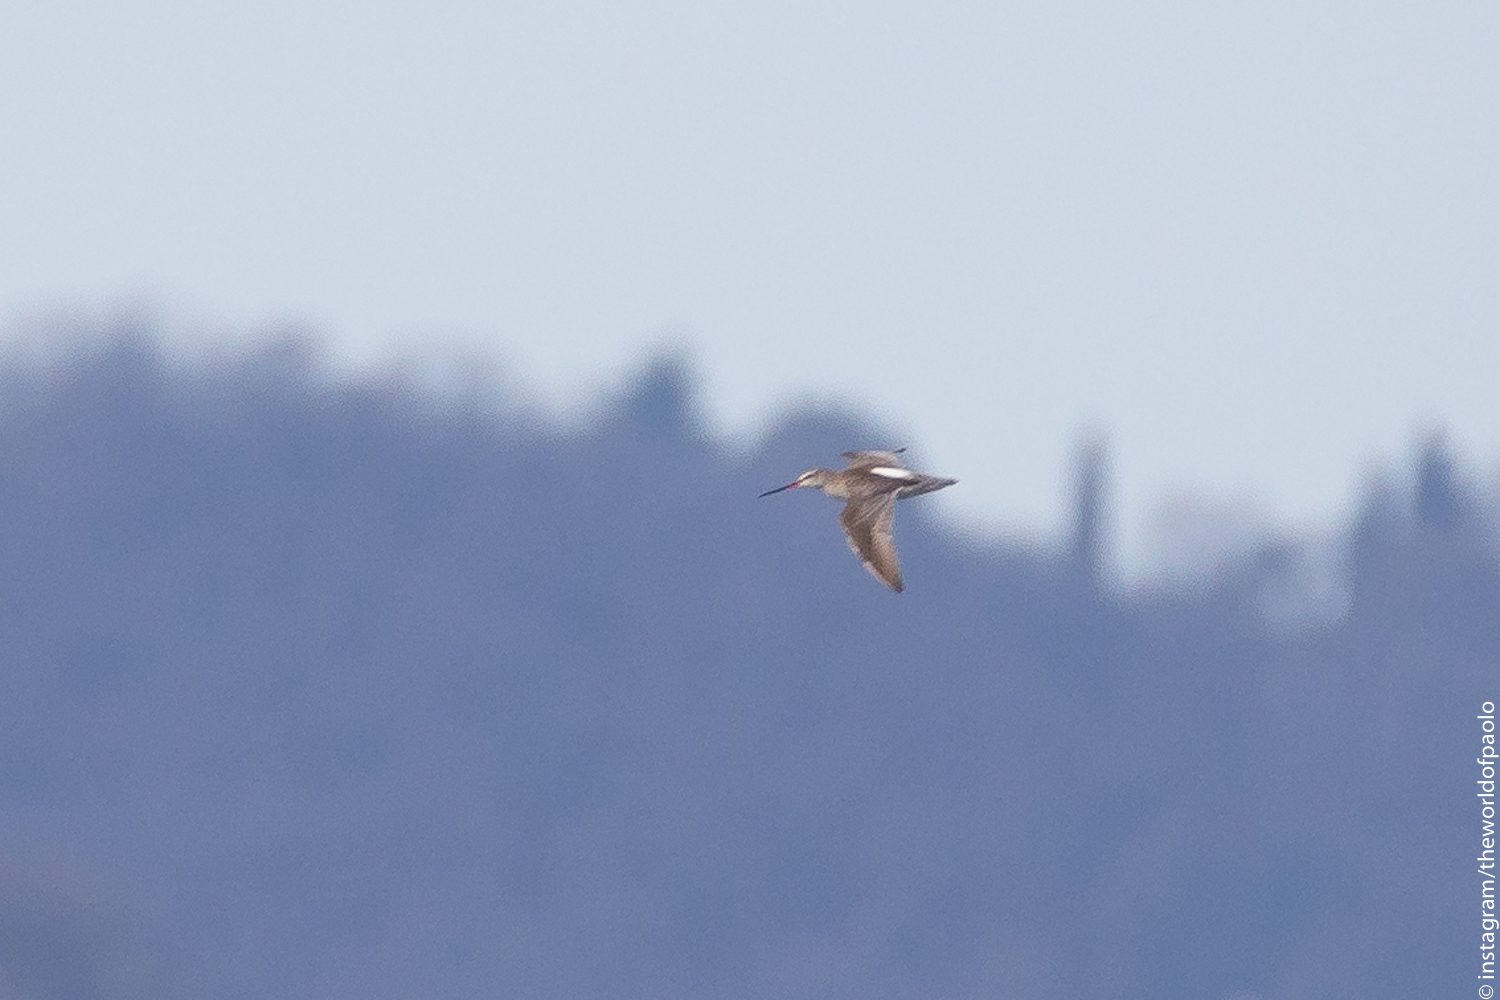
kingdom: Animalia
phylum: Chordata
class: Aves
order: Charadriiformes
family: Scolopacidae
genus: Tringa
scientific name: Tringa erythropus
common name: Spotted redshank
